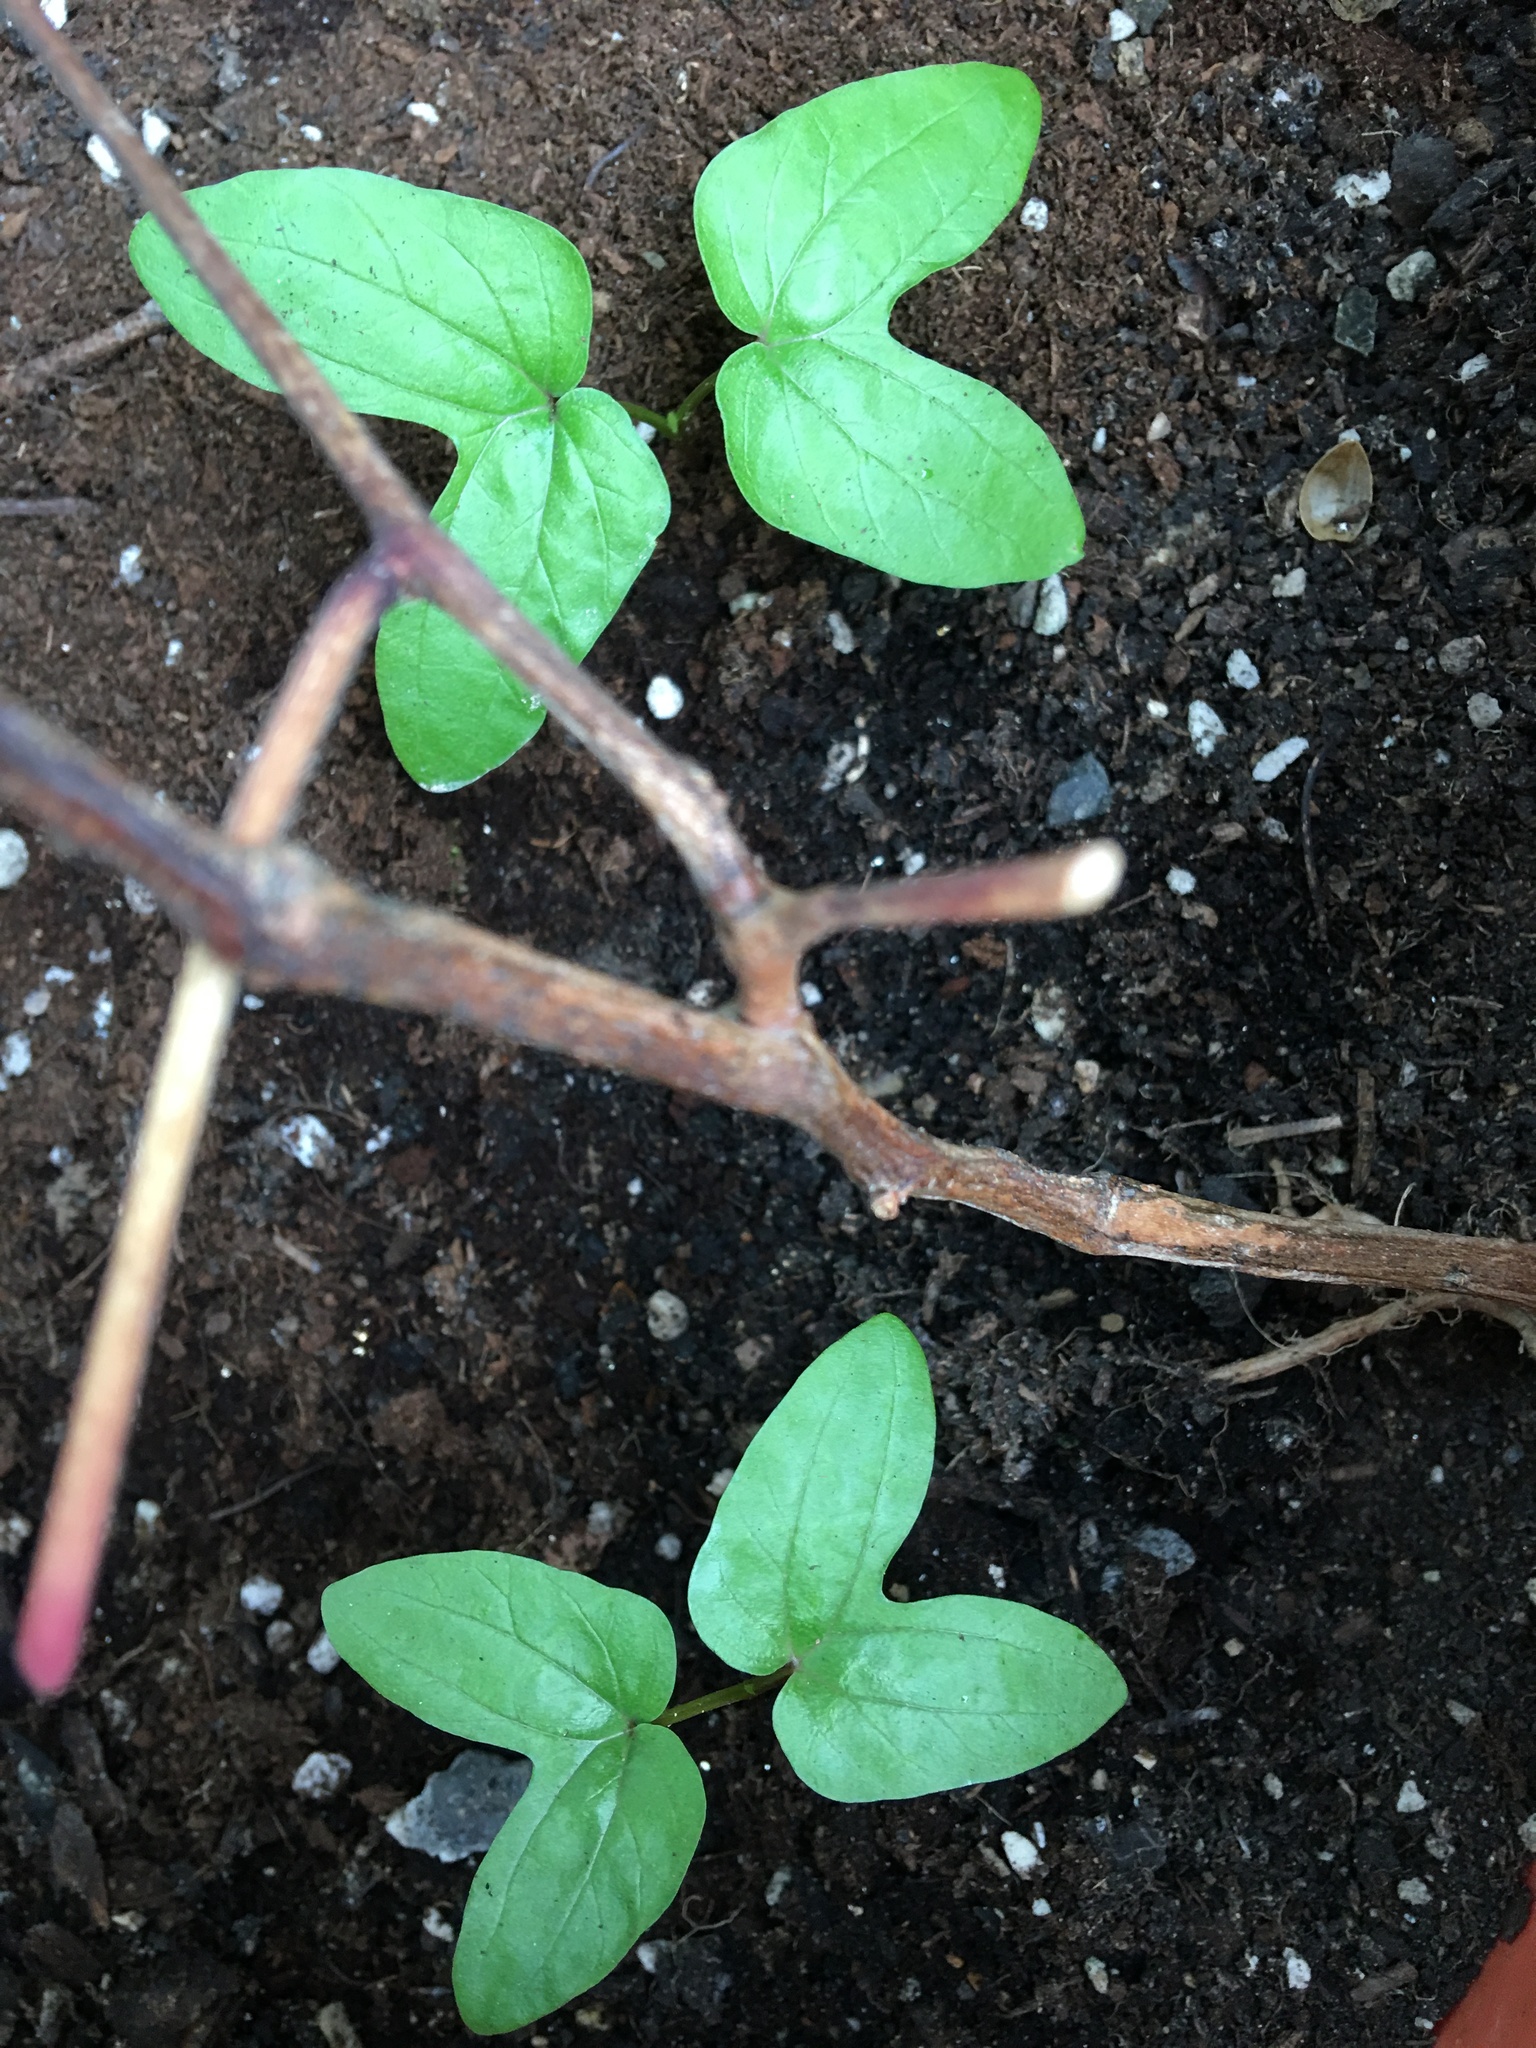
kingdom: Plantae
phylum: Tracheophyta
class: Magnoliopsida
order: Solanales
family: Convolvulaceae
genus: Ipomoea
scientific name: Ipomoea nil
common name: Japanese morning-glory
